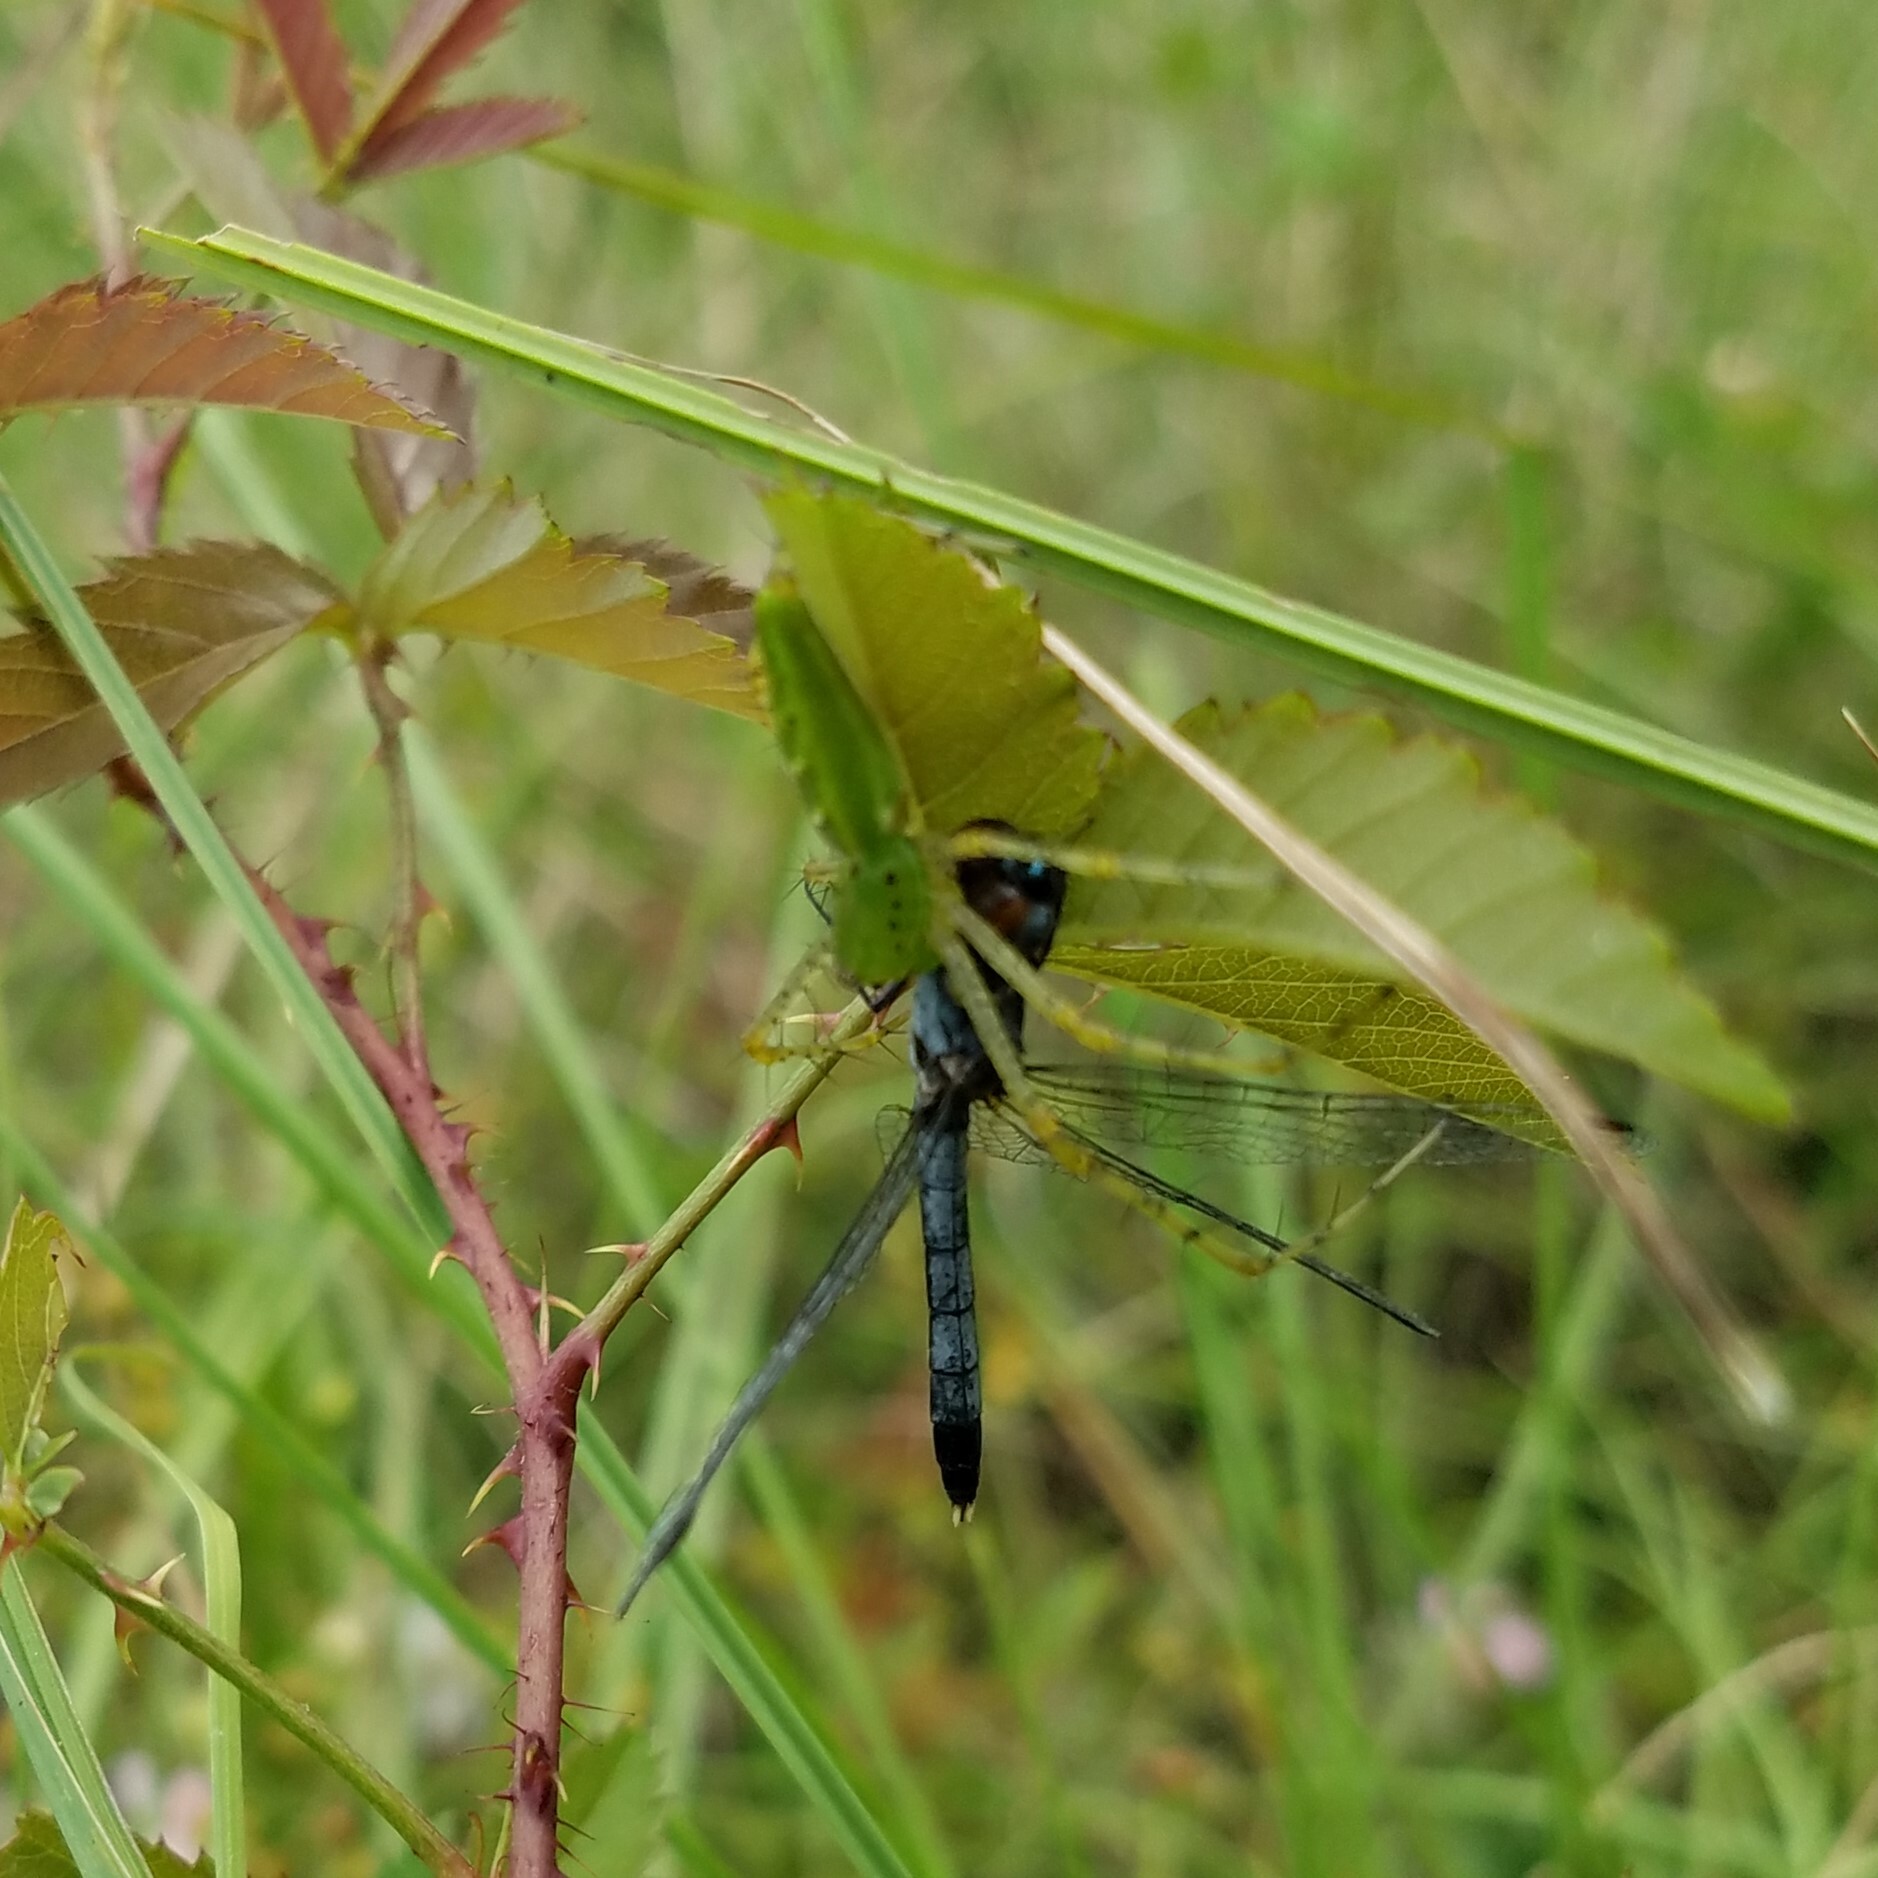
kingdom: Animalia
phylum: Arthropoda
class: Arachnida
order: Araneae
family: Oxyopidae
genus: Peucetia
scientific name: Peucetia viridans
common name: Lynx spiders
